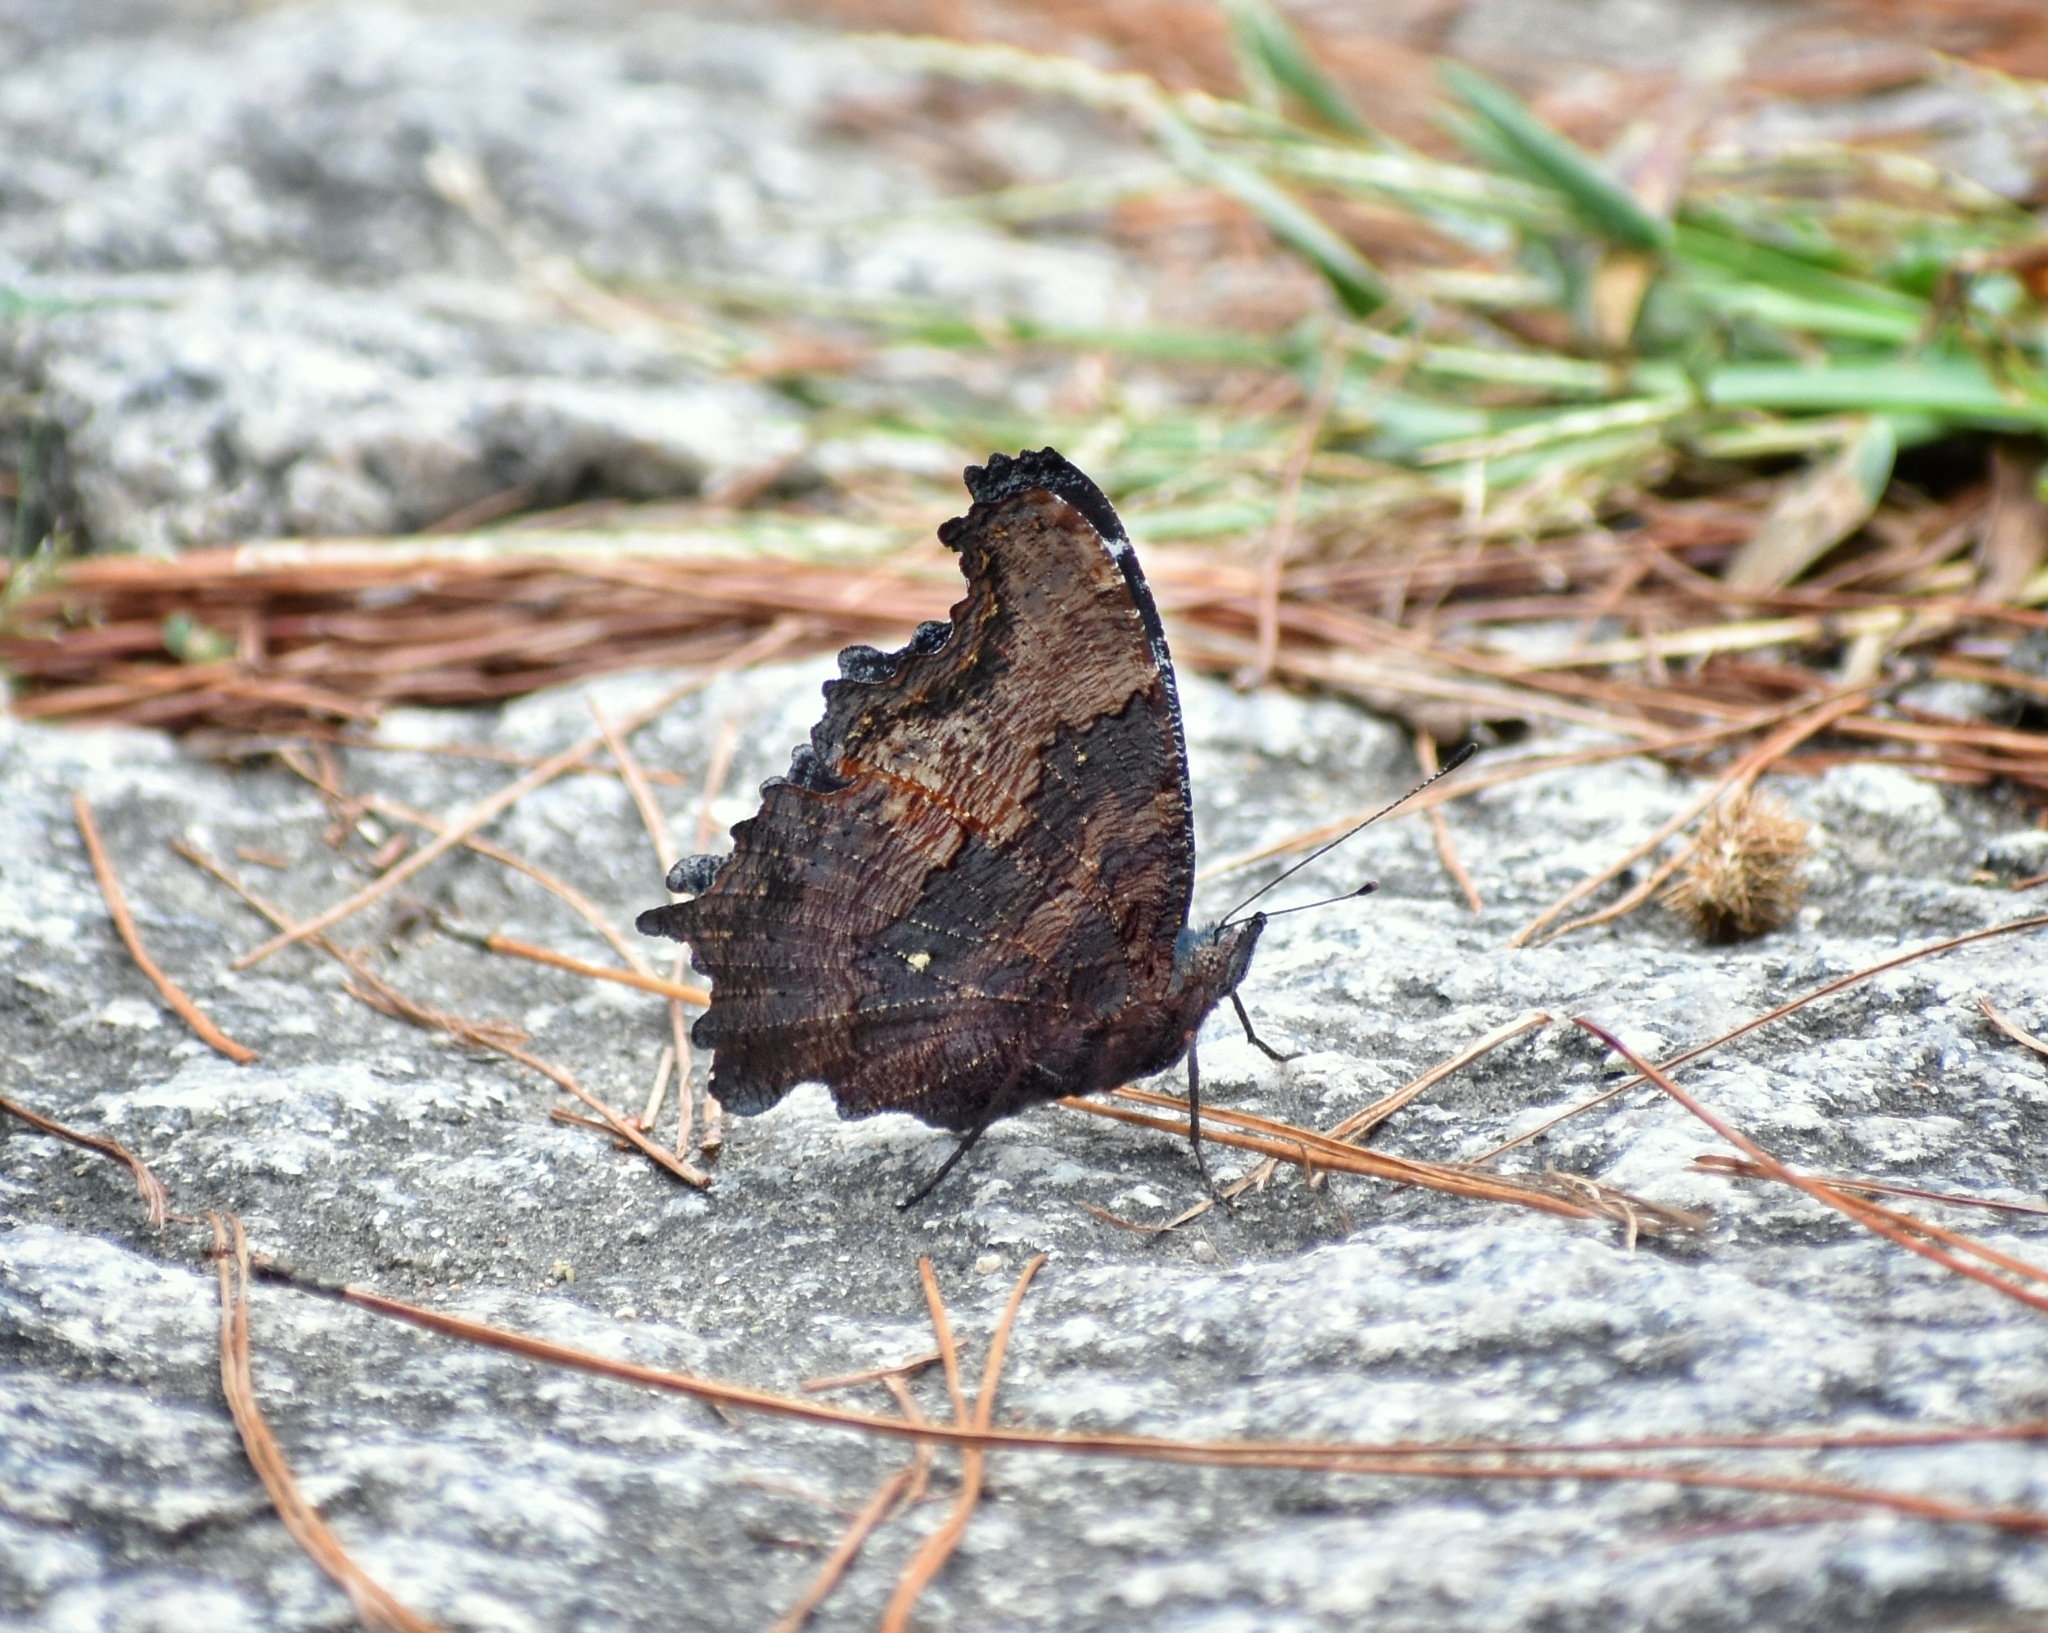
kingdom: Animalia
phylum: Arthropoda
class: Insecta
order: Lepidoptera
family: Nymphalidae
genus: Vanessa
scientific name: Vanessa Kaniska canace
